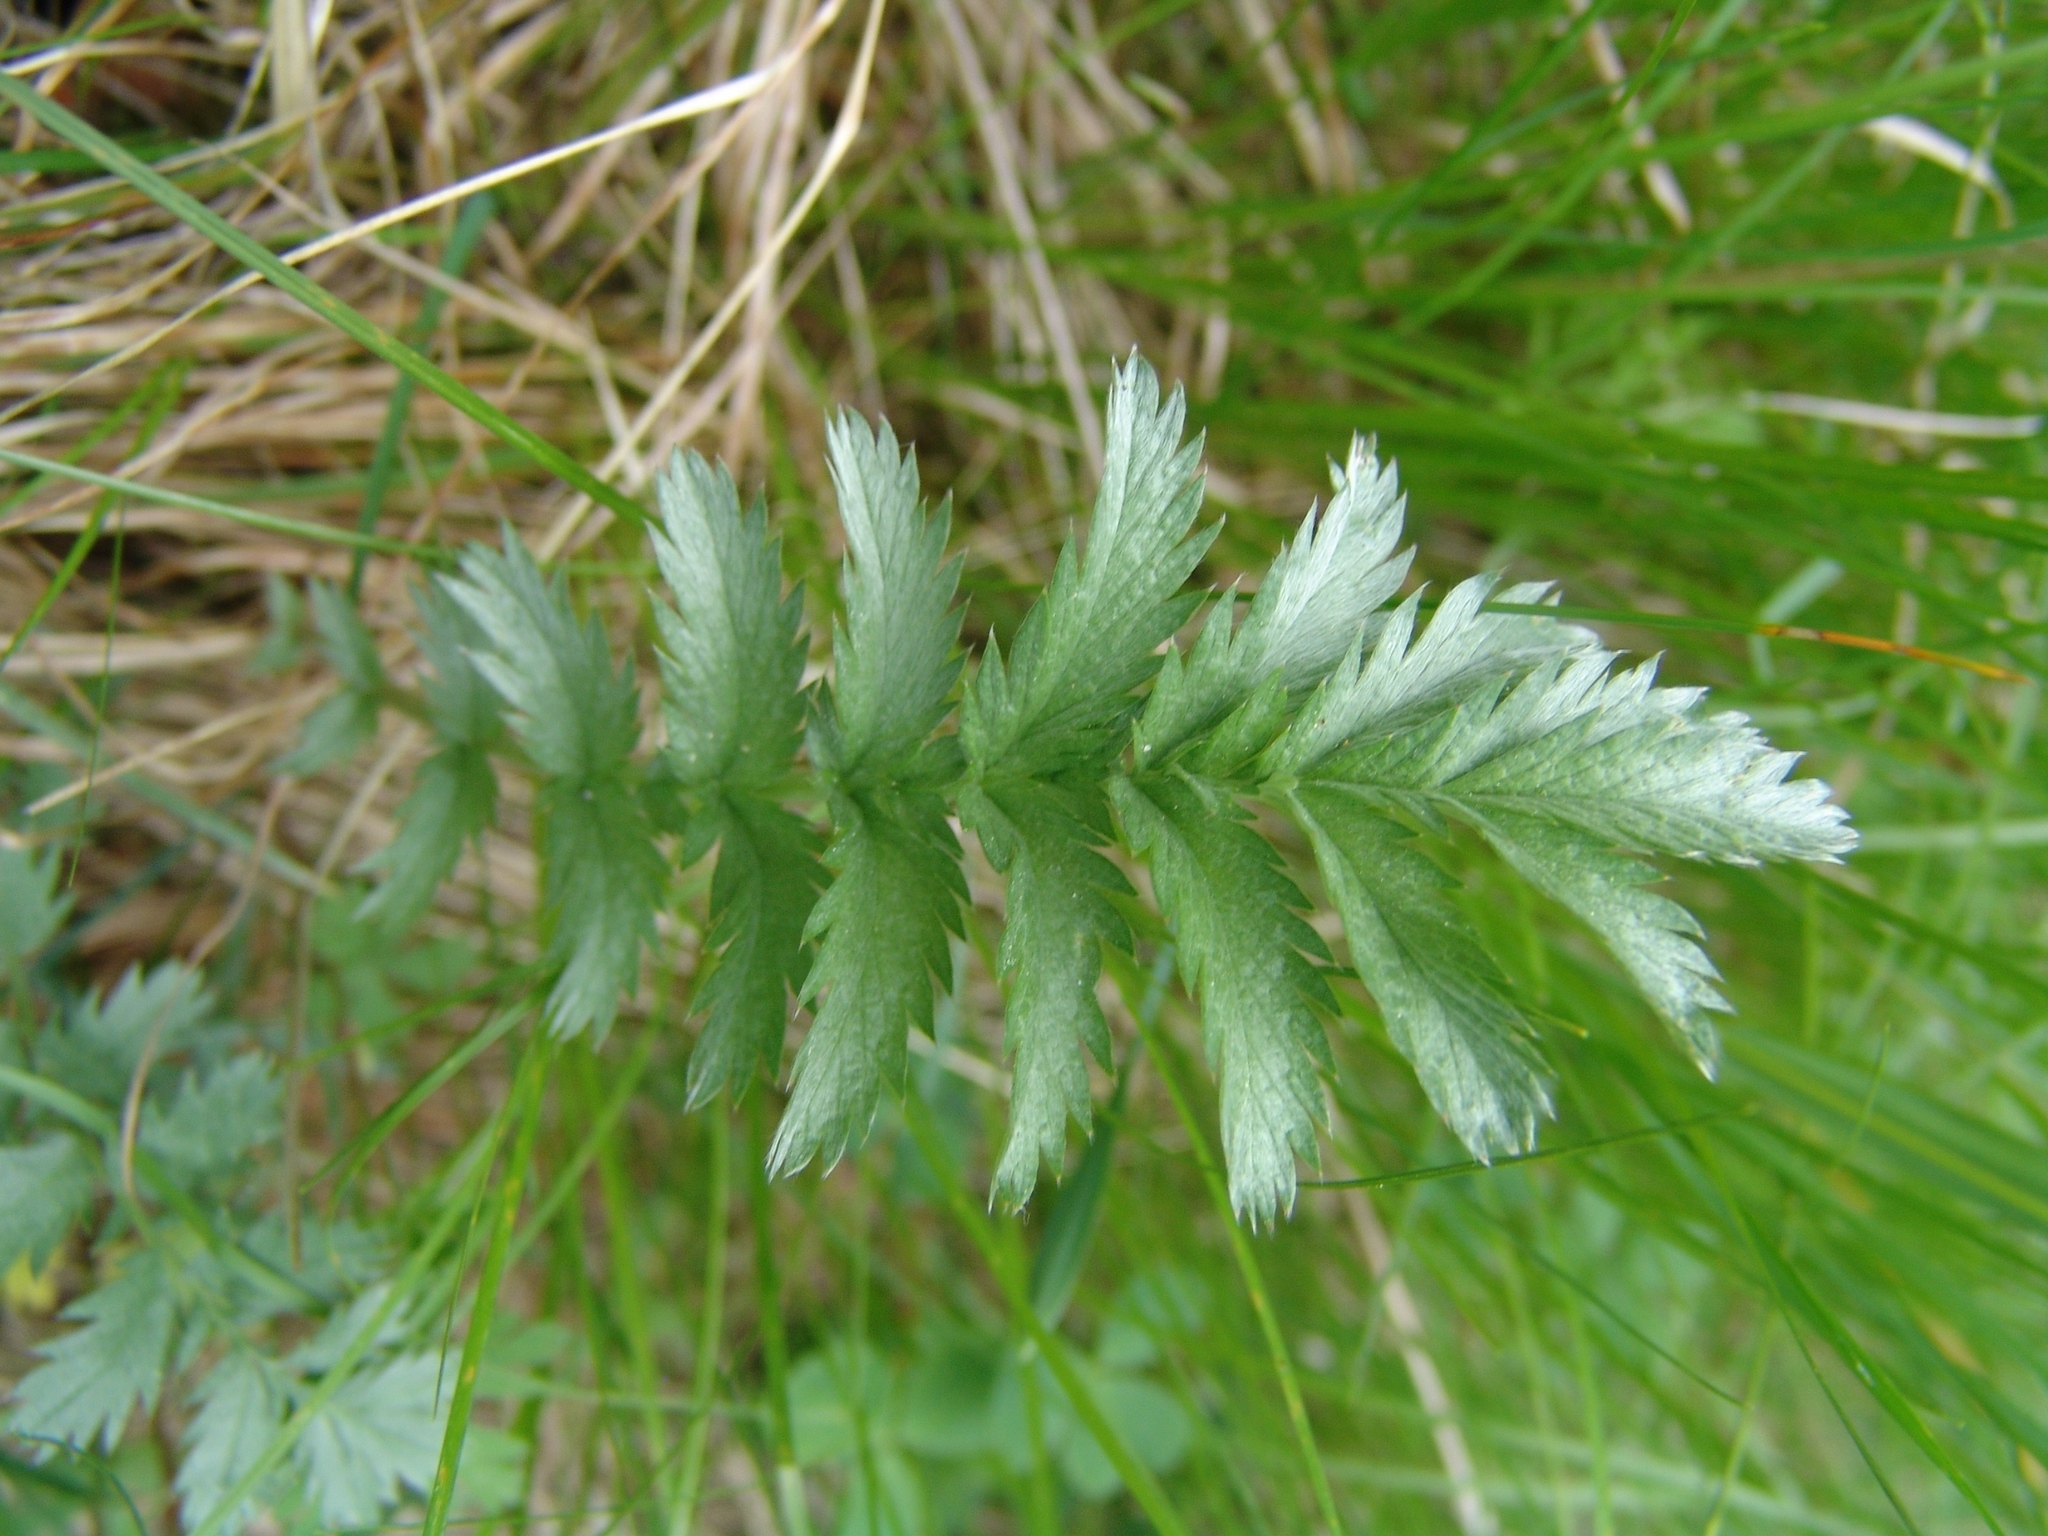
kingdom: Plantae
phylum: Tracheophyta
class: Magnoliopsida
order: Rosales
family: Rosaceae
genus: Argentina
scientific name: Argentina anserina
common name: Common silverweed
